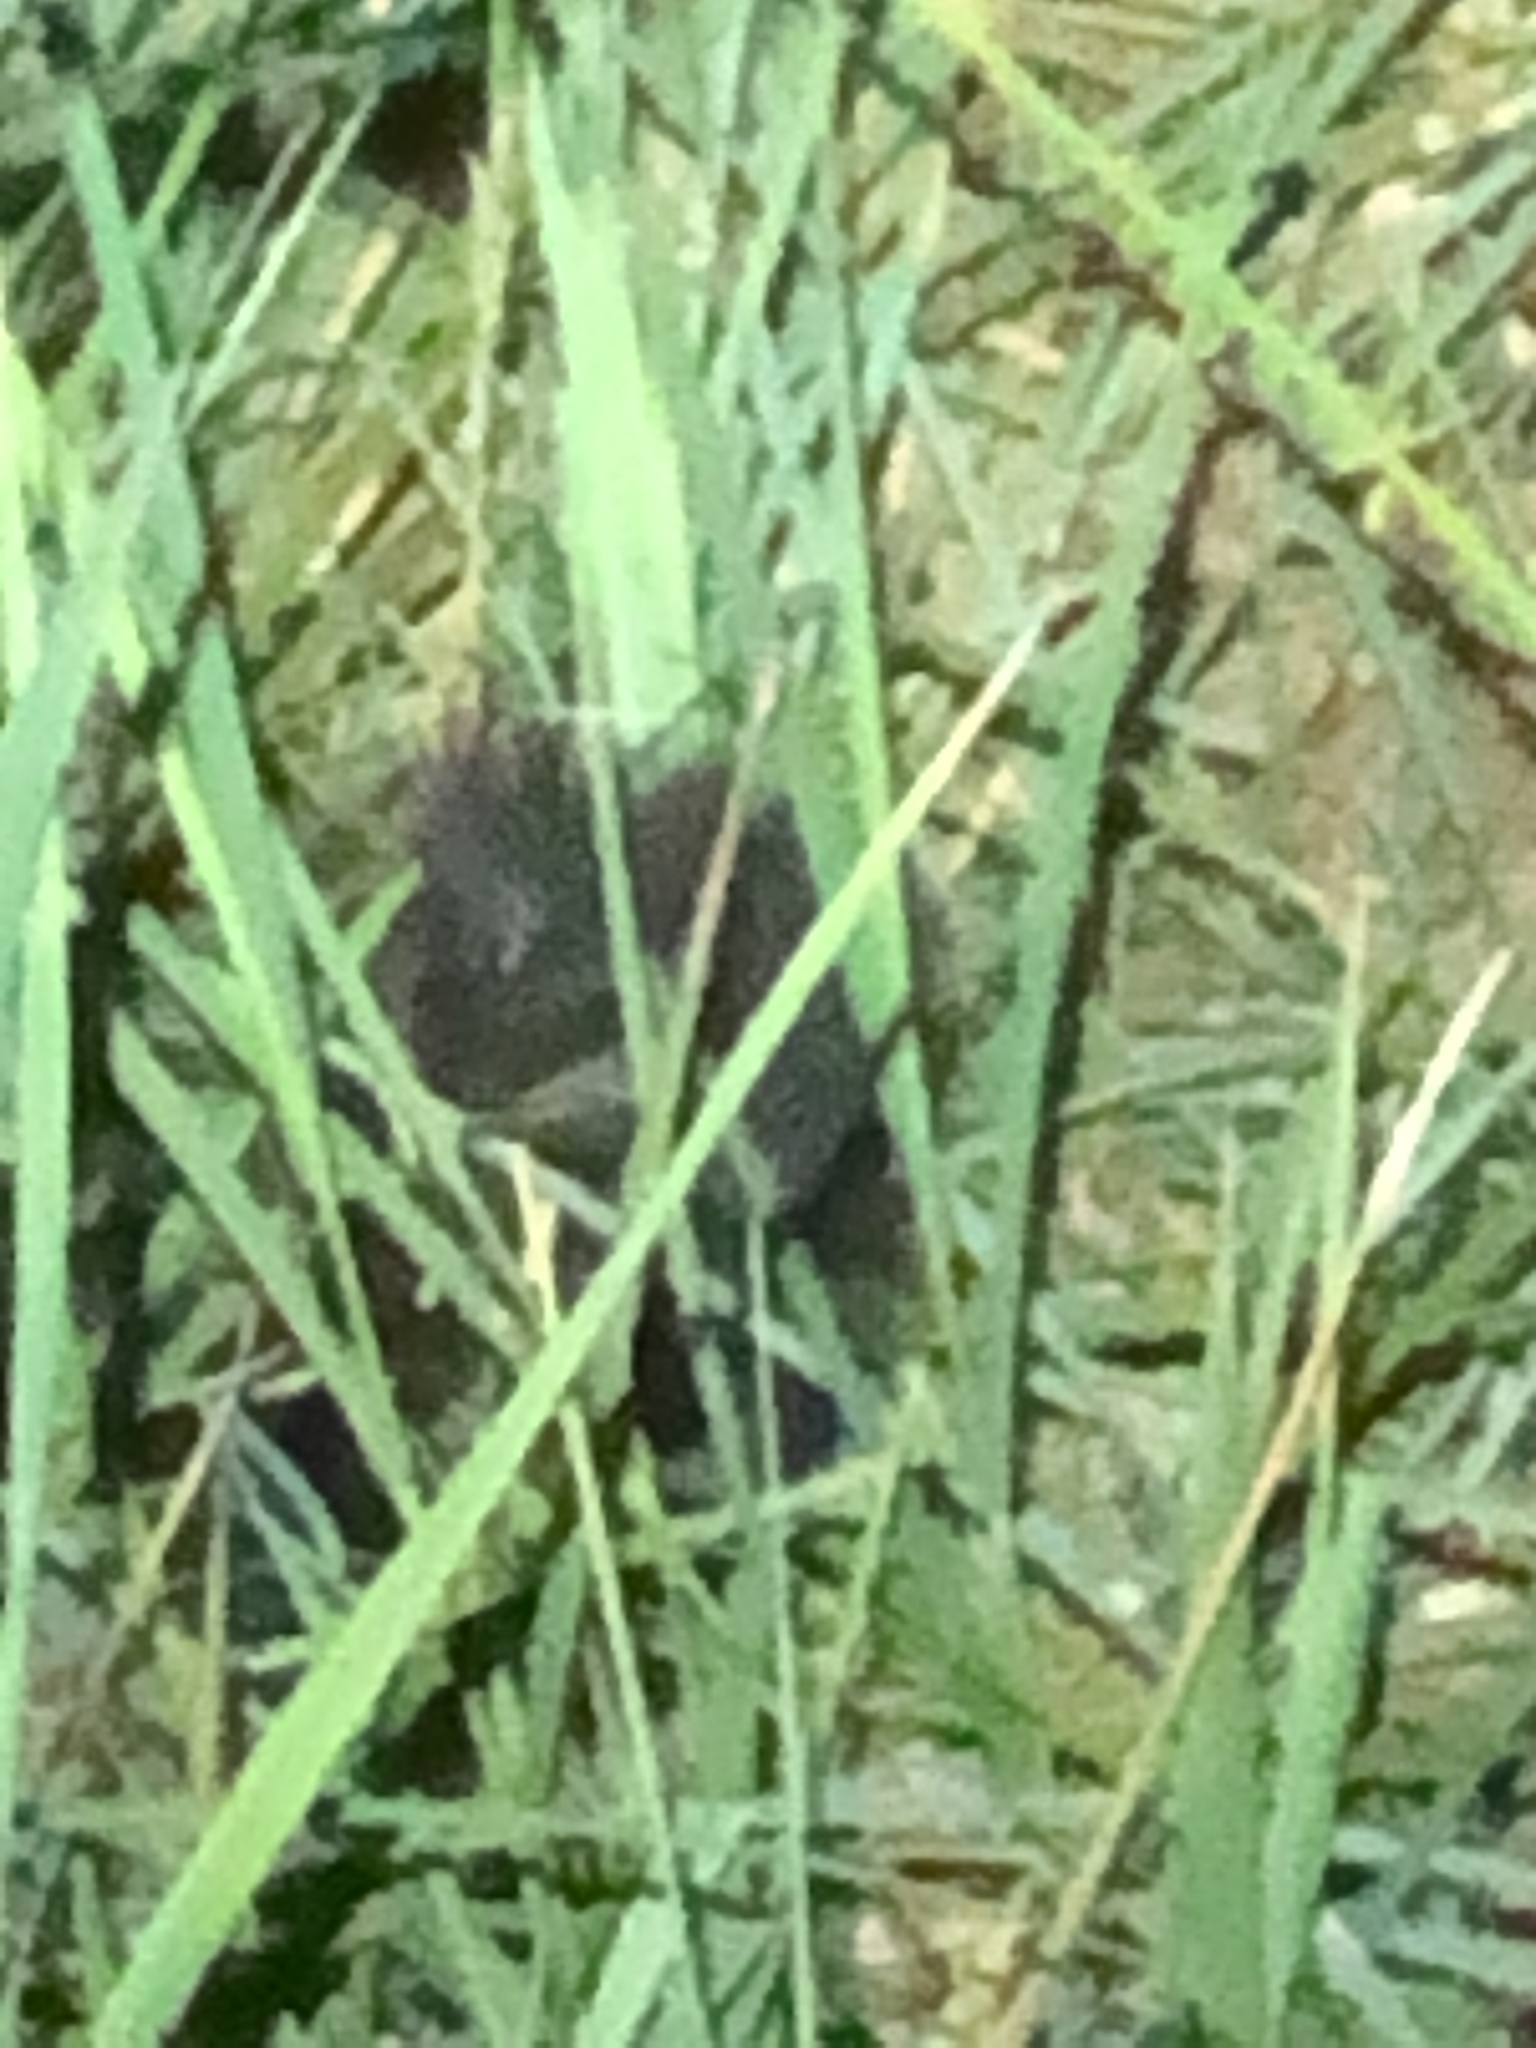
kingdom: Animalia
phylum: Chordata
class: Mammalia
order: Carnivora
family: Mephitidae
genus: Mephitis
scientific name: Mephitis mephitis
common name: Striped skunk
